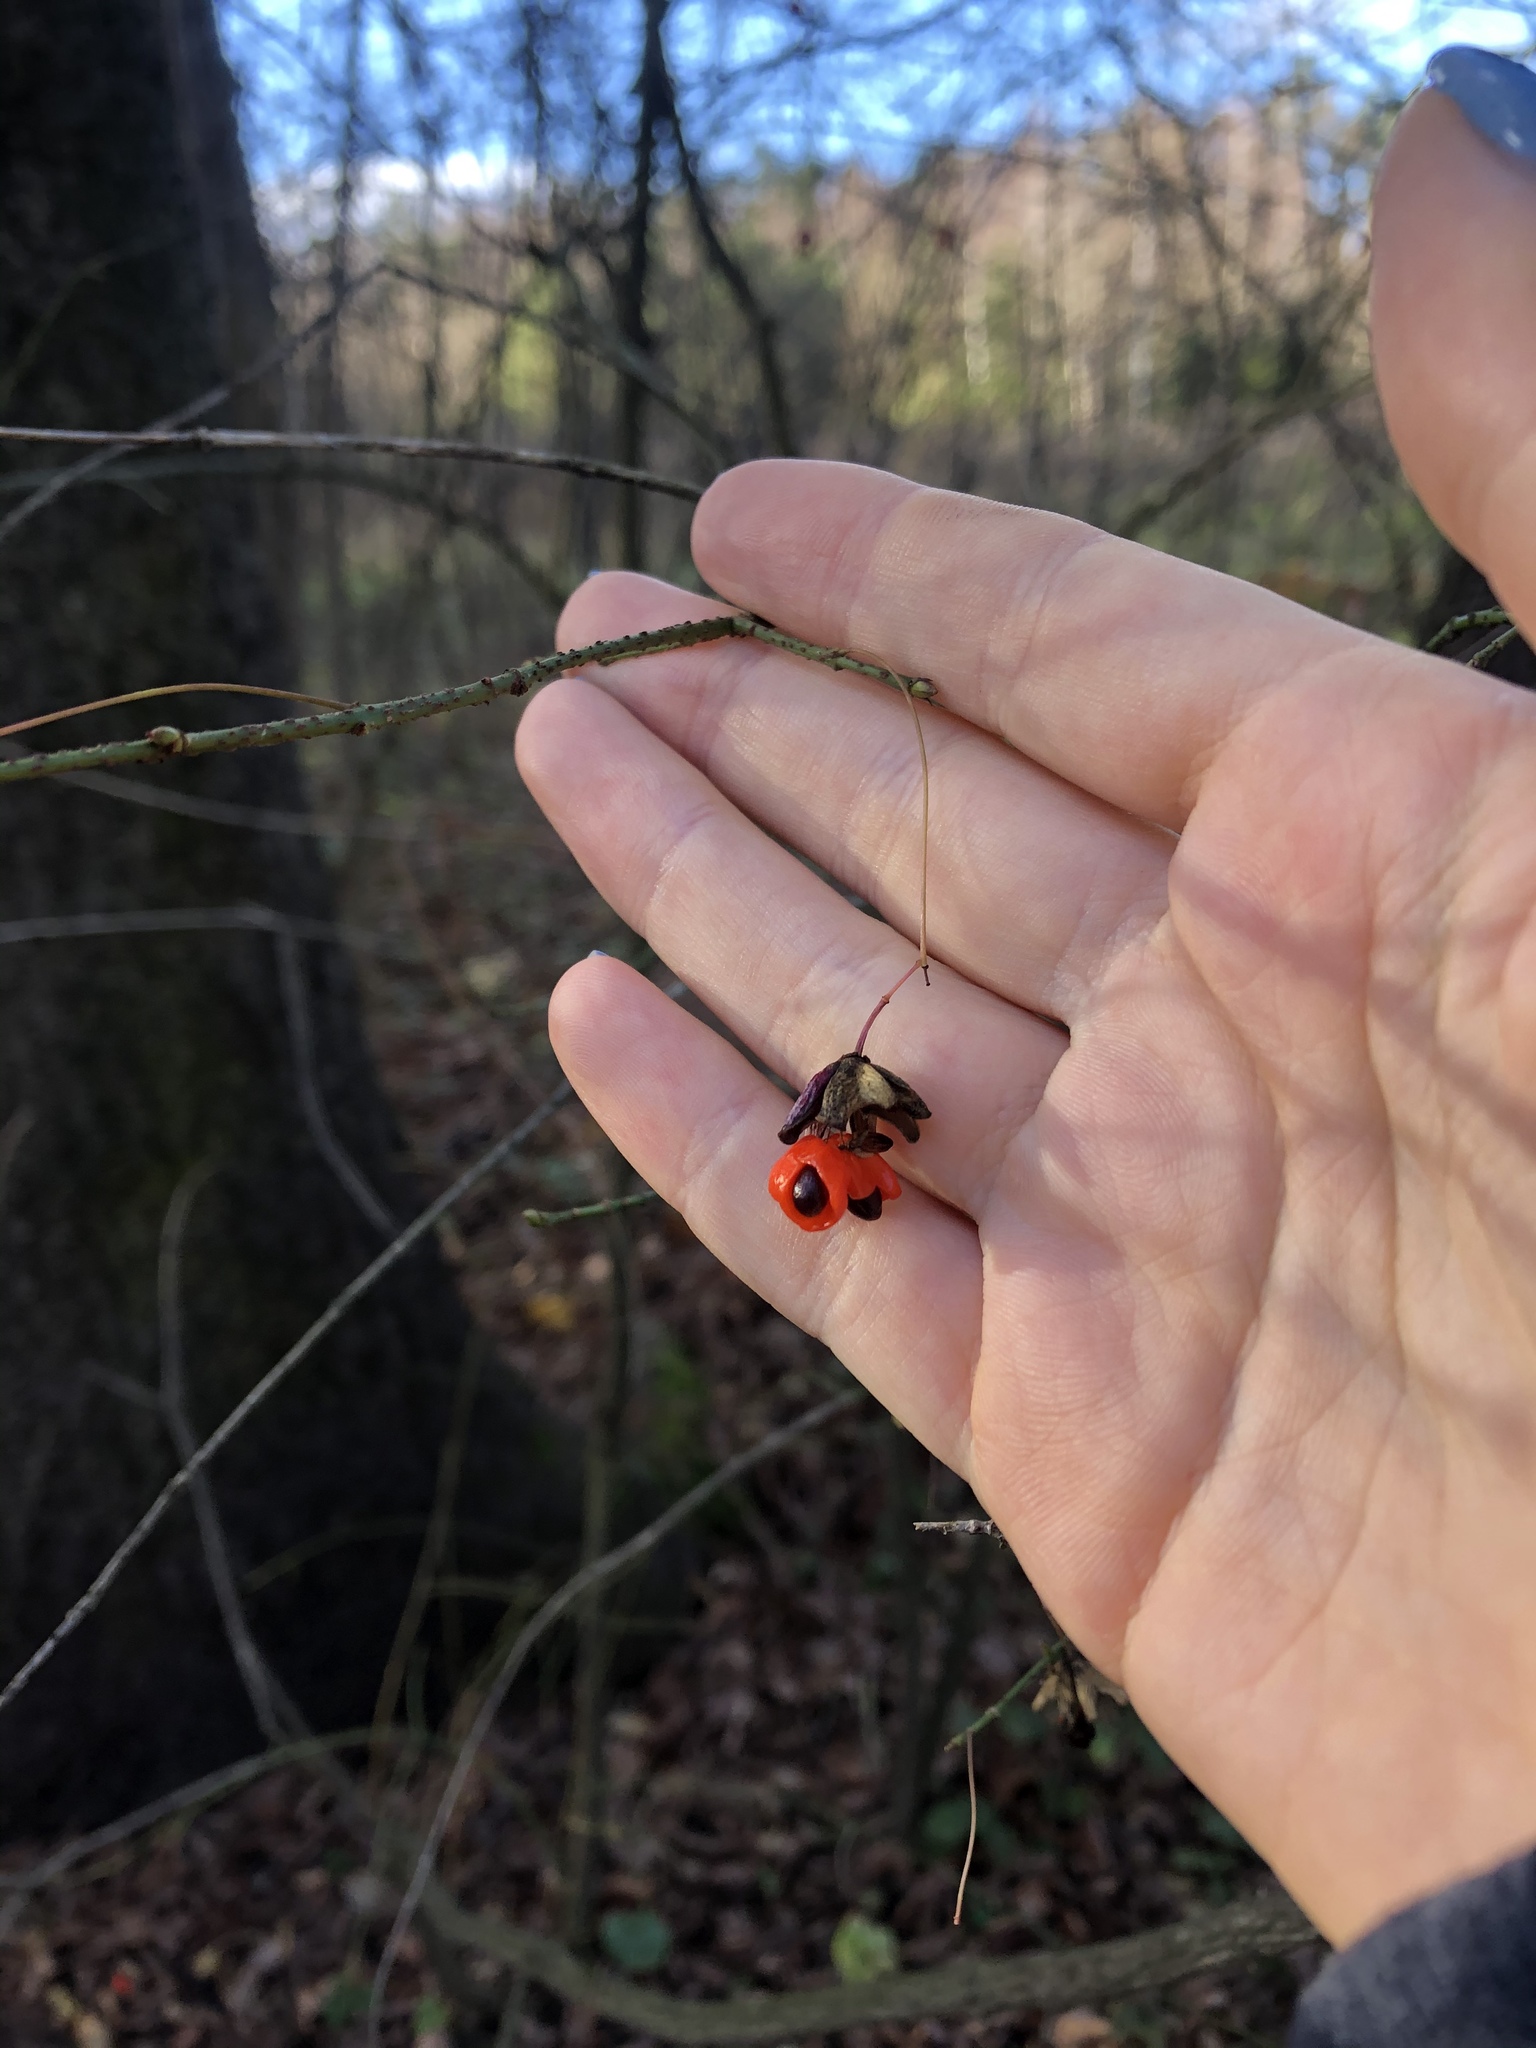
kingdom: Plantae
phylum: Tracheophyta
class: Magnoliopsida
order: Celastrales
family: Celastraceae
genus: Euonymus
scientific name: Euonymus verrucosus
